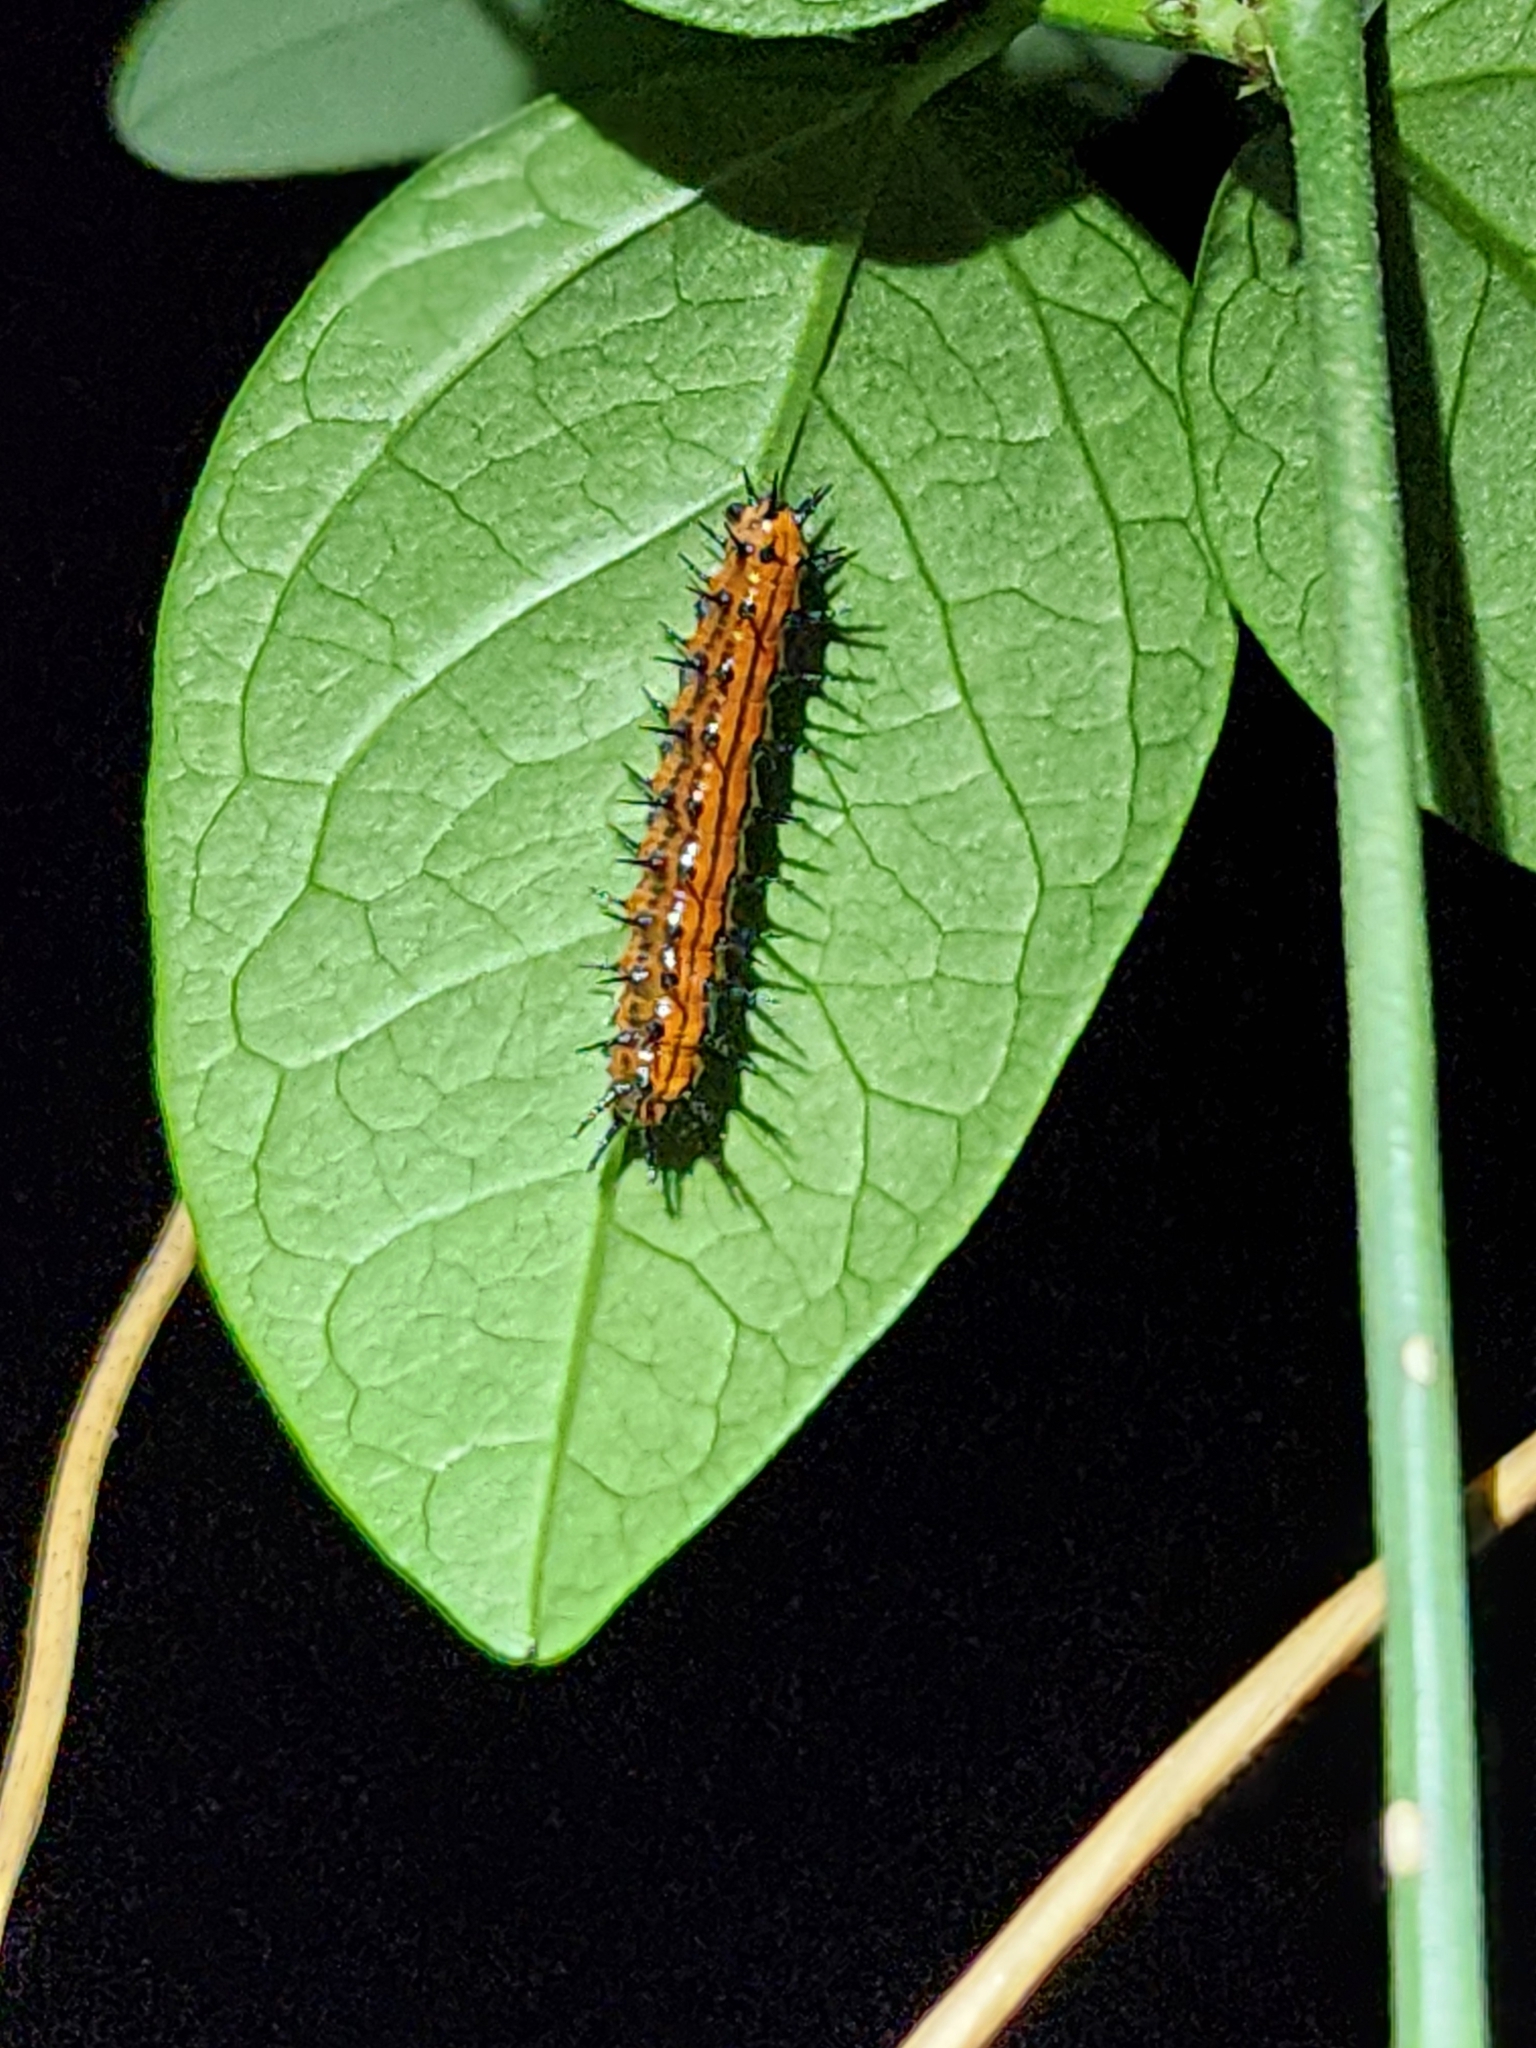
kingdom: Animalia
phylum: Arthropoda
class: Insecta
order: Lepidoptera
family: Nymphalidae
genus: Dione
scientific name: Dione vanillae
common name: Gulf fritillary
